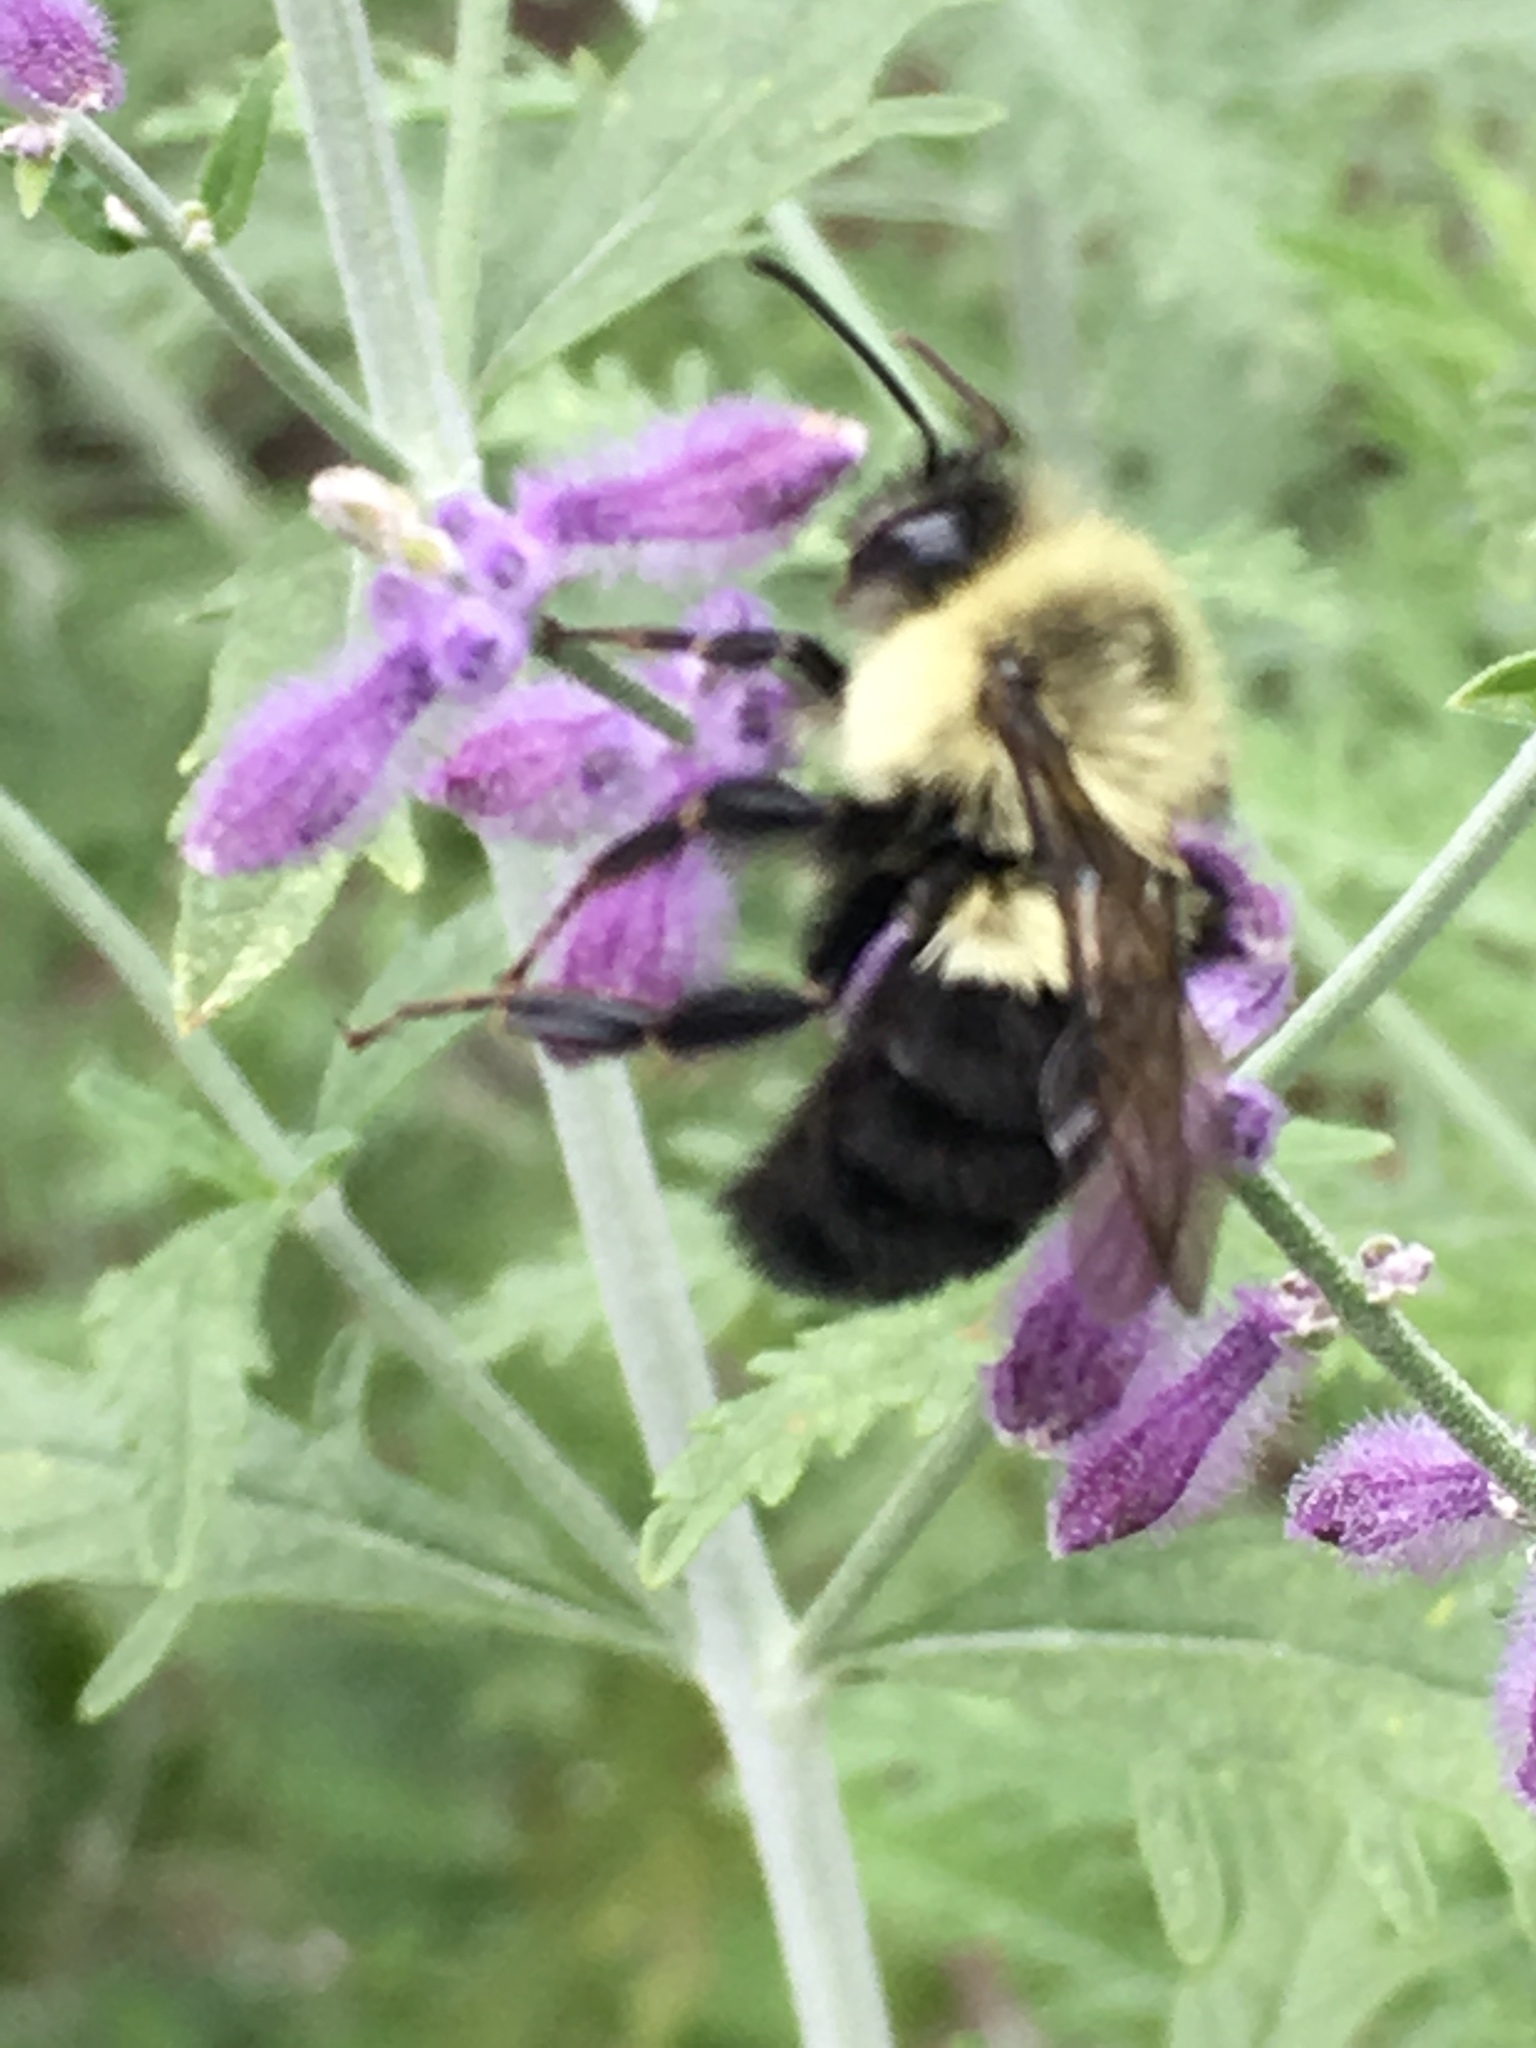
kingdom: Animalia
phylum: Arthropoda
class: Insecta
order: Hymenoptera
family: Apidae
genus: Bombus
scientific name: Bombus impatiens
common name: Common eastern bumble bee
